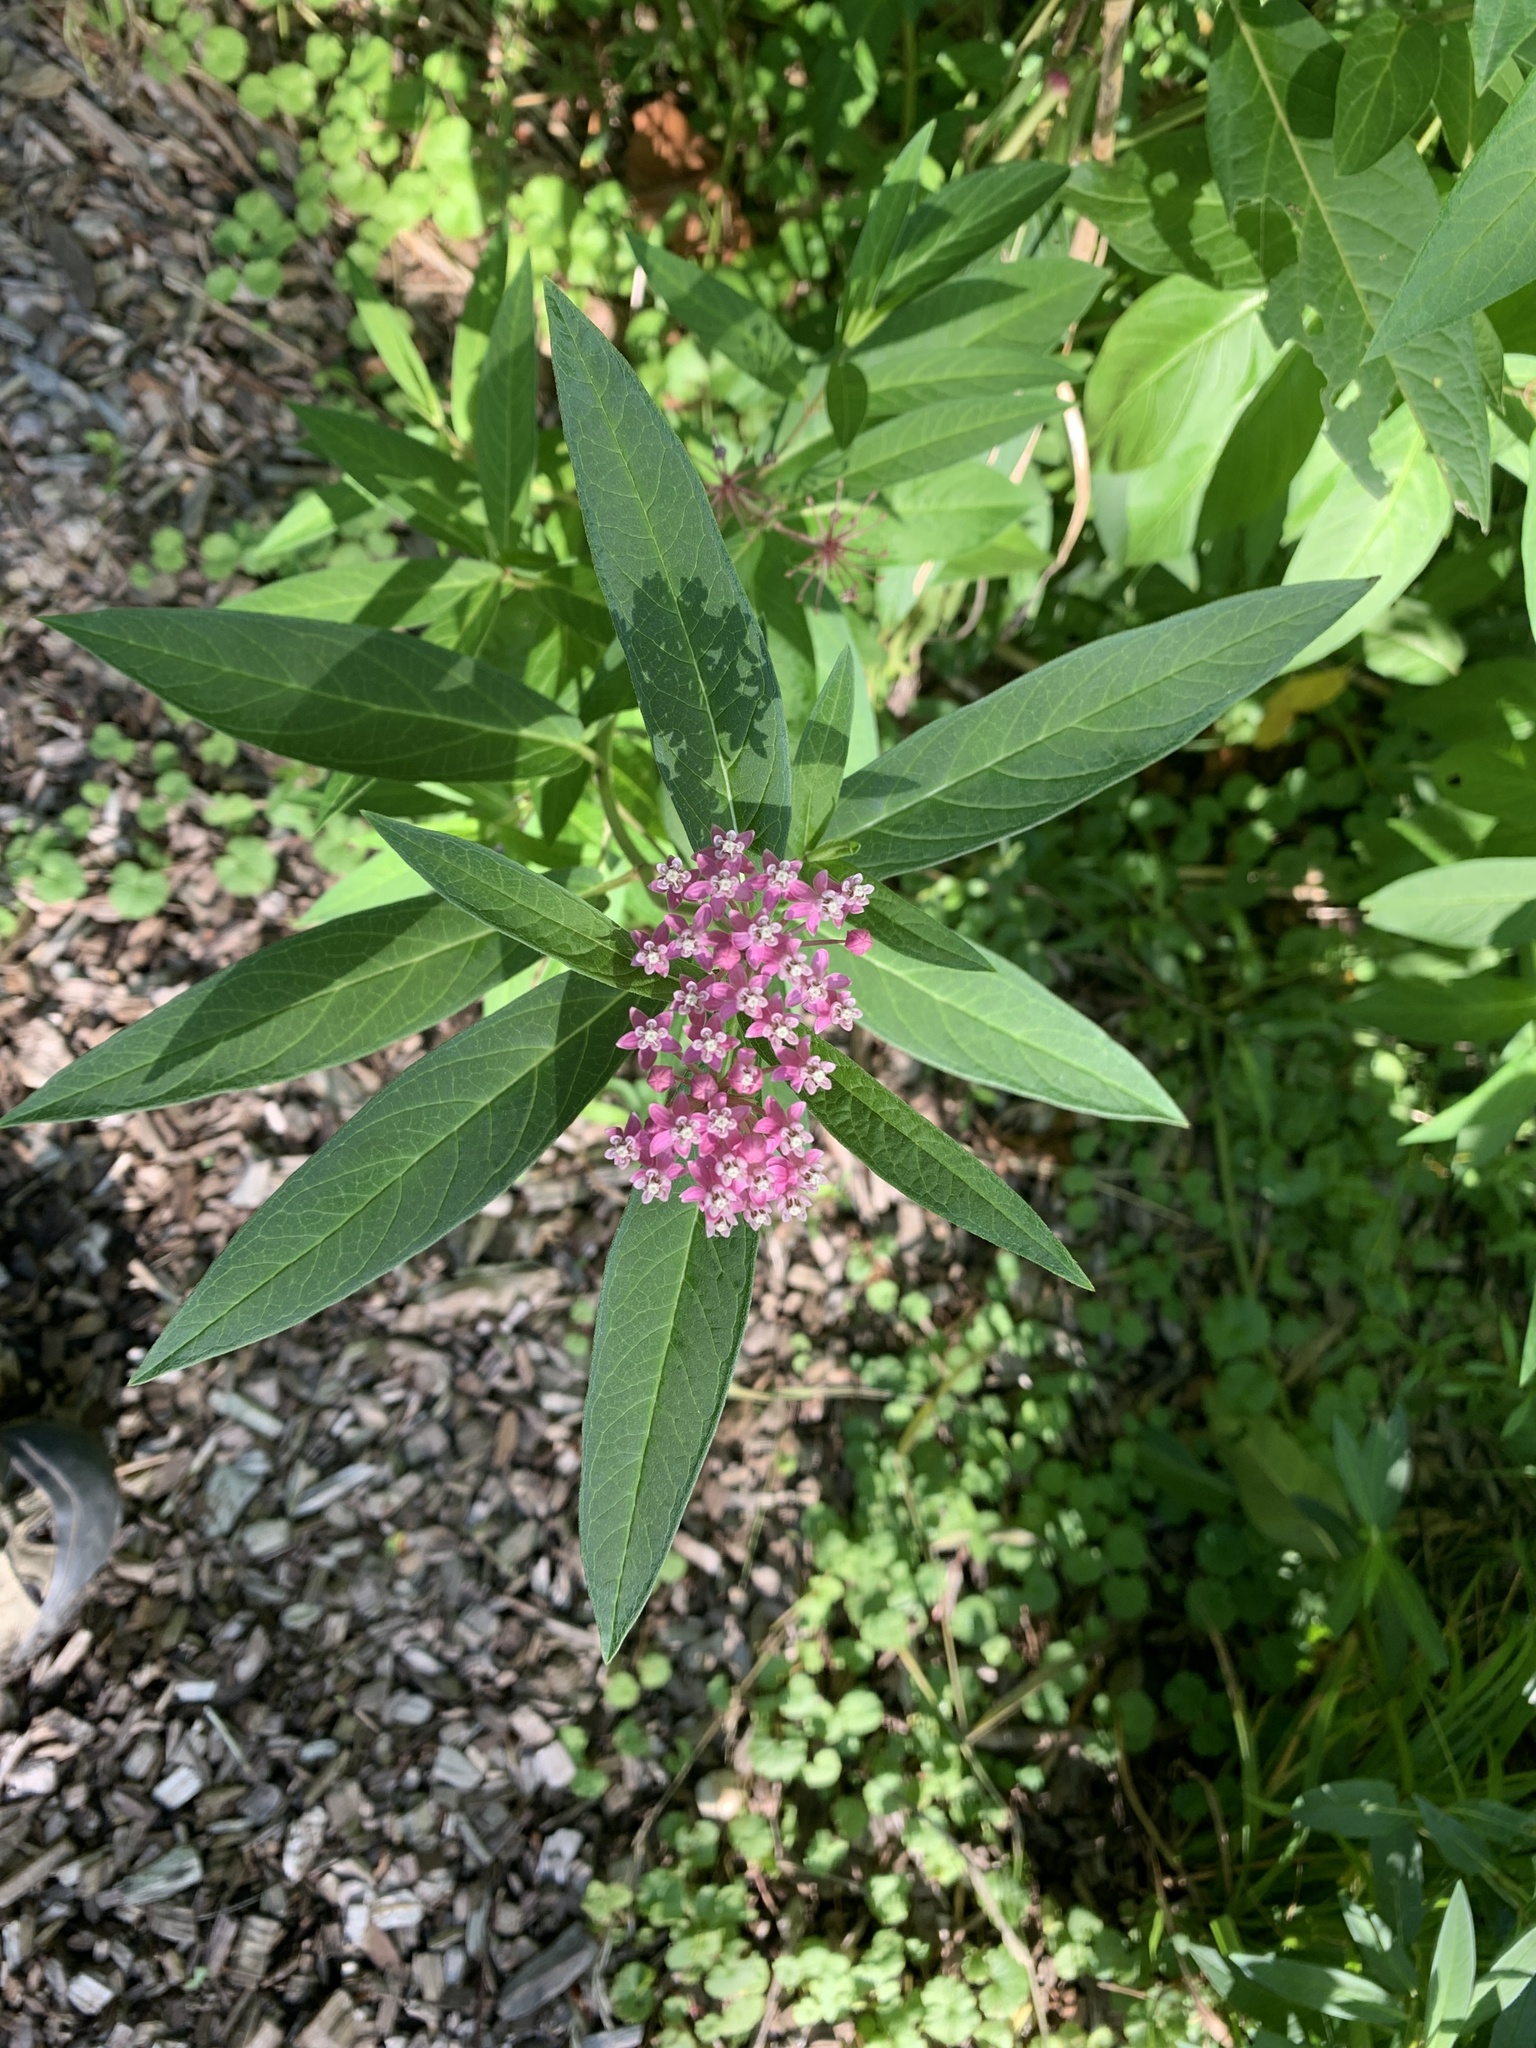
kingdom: Plantae
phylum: Tracheophyta
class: Magnoliopsida
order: Gentianales
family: Apocynaceae
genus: Asclepias
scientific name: Asclepias incarnata
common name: Swamp milkweed
